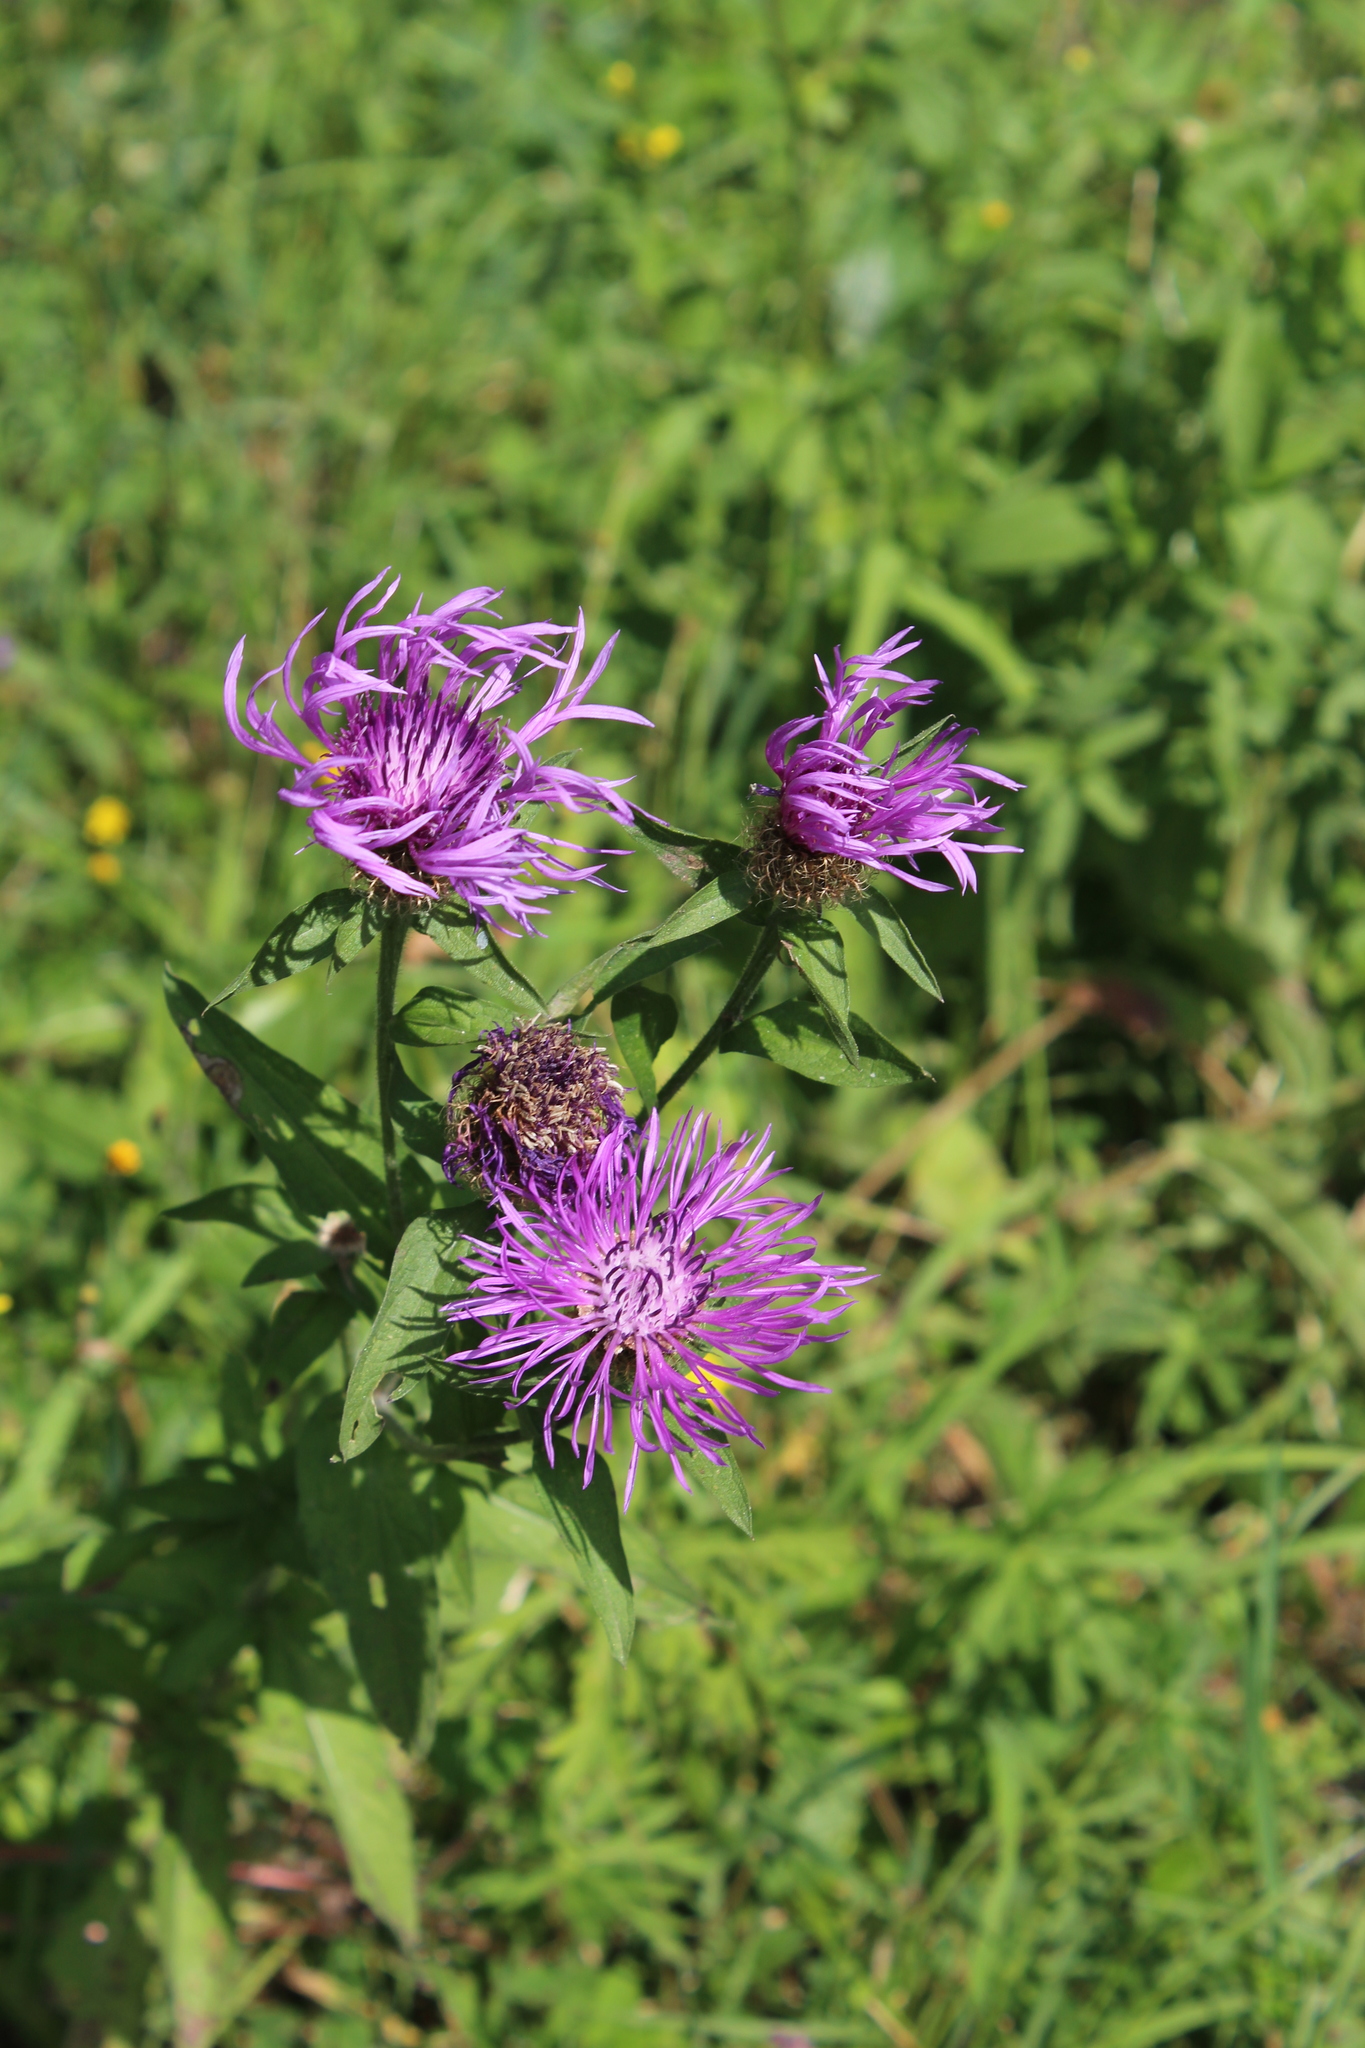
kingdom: Plantae
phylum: Tracheophyta
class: Magnoliopsida
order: Asterales
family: Asteraceae
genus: Centaurea
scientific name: Centaurea phrygia
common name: Wig knapweed
